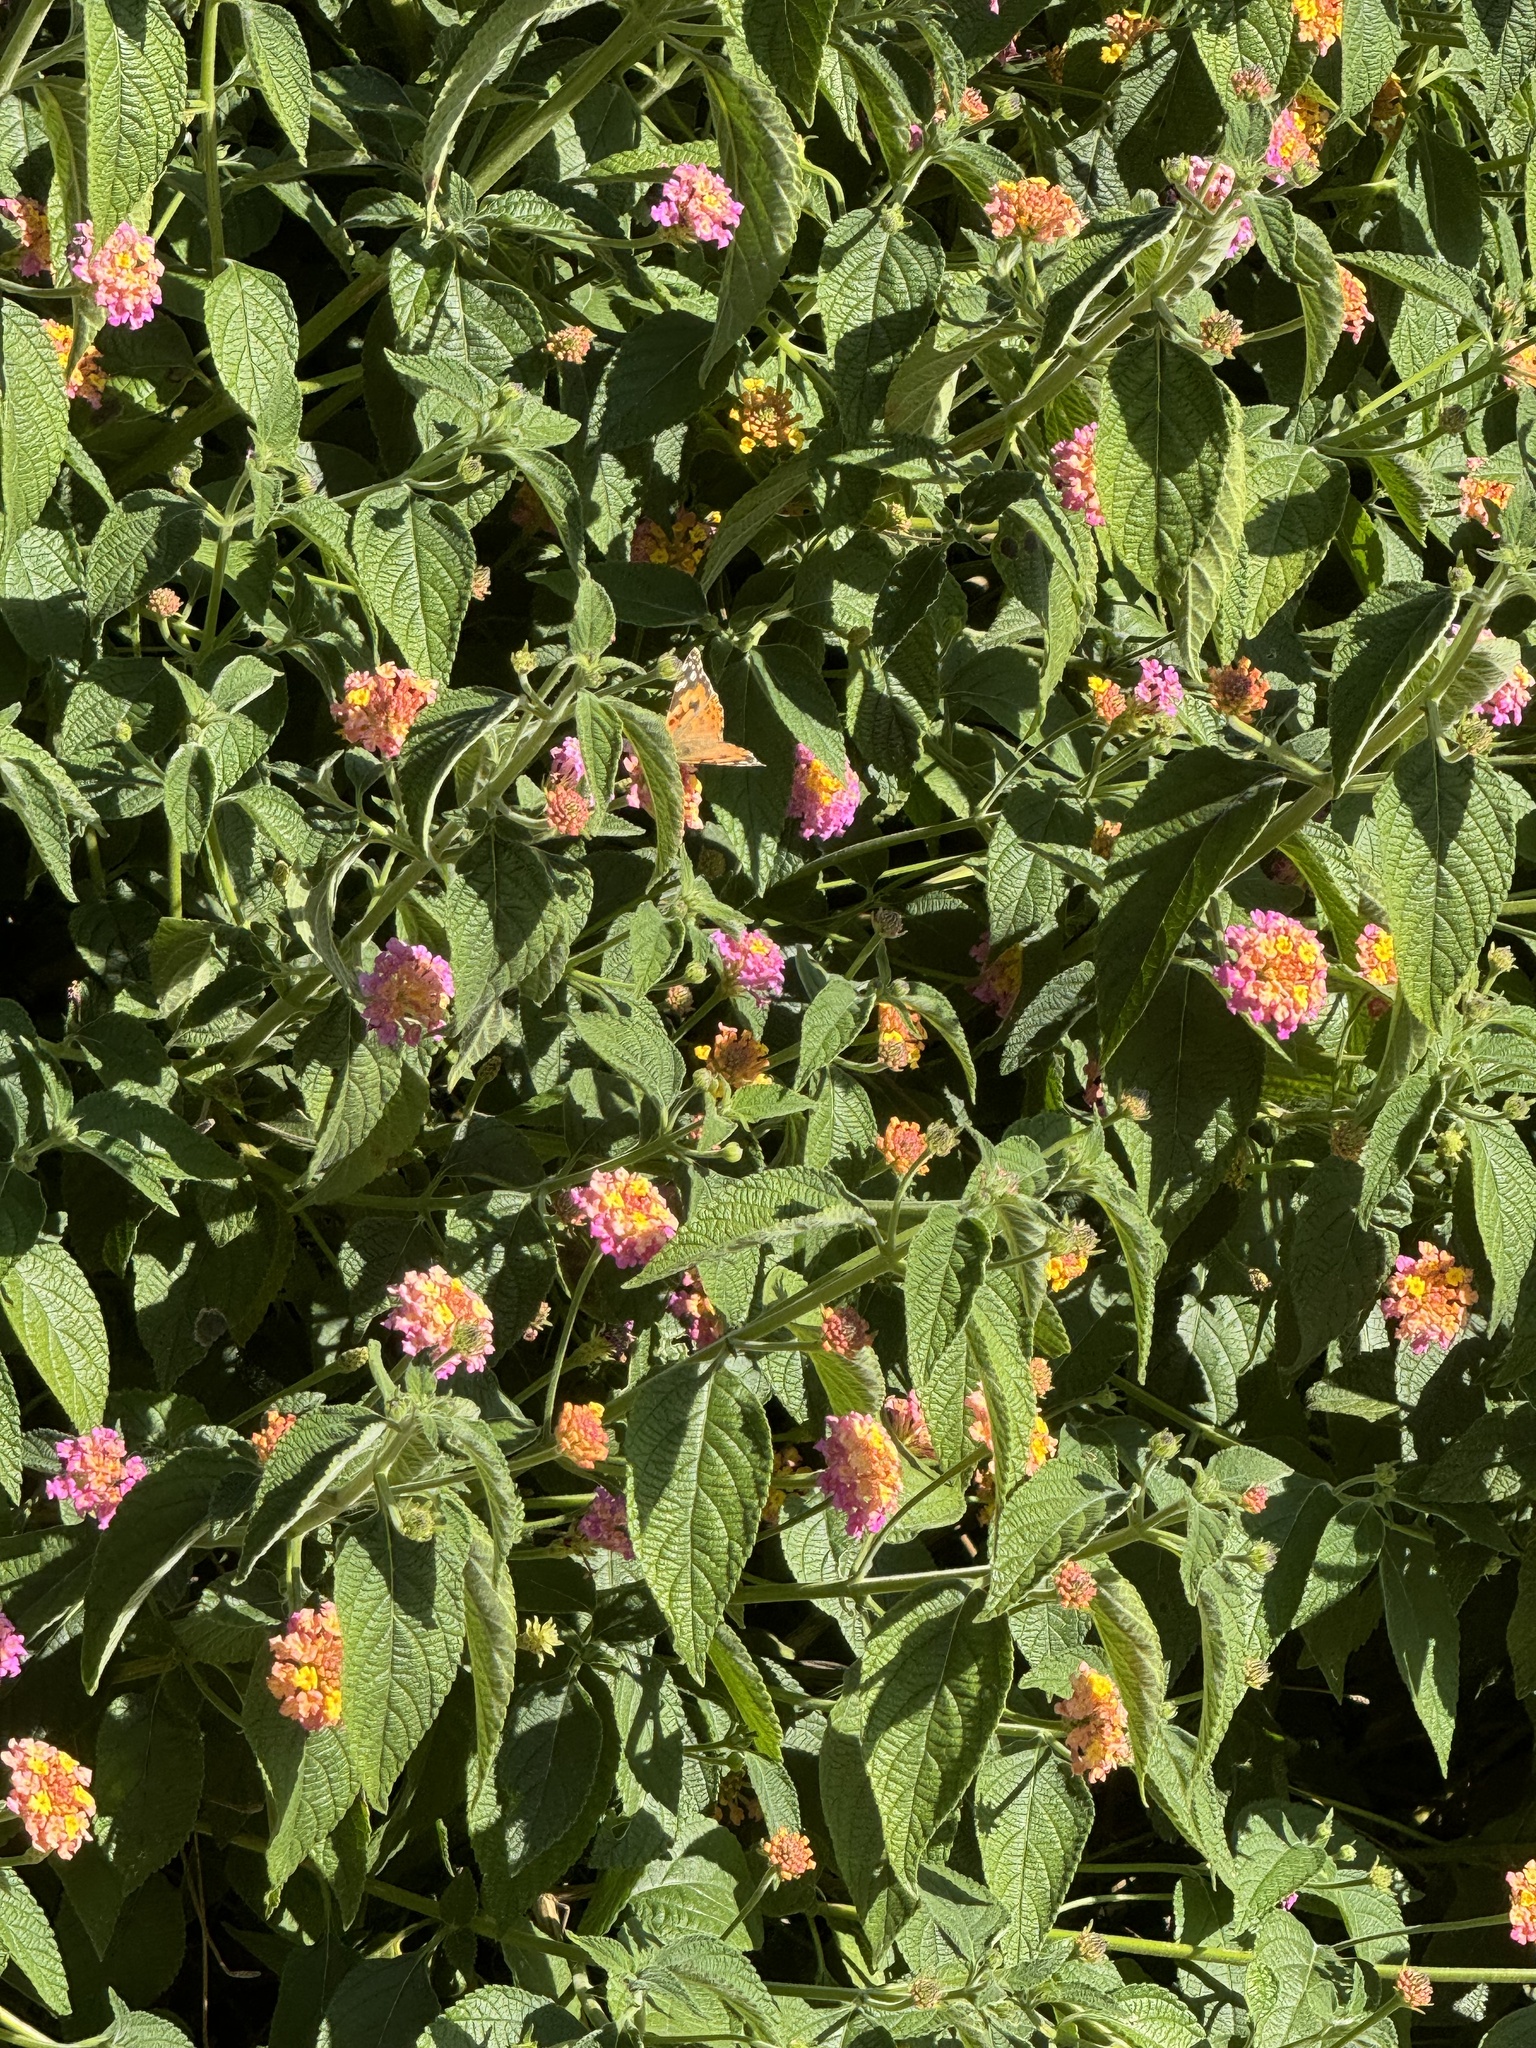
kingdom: Animalia
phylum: Arthropoda
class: Insecta
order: Lepidoptera
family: Nymphalidae
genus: Vanessa
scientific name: Vanessa cardui
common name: Painted lady
